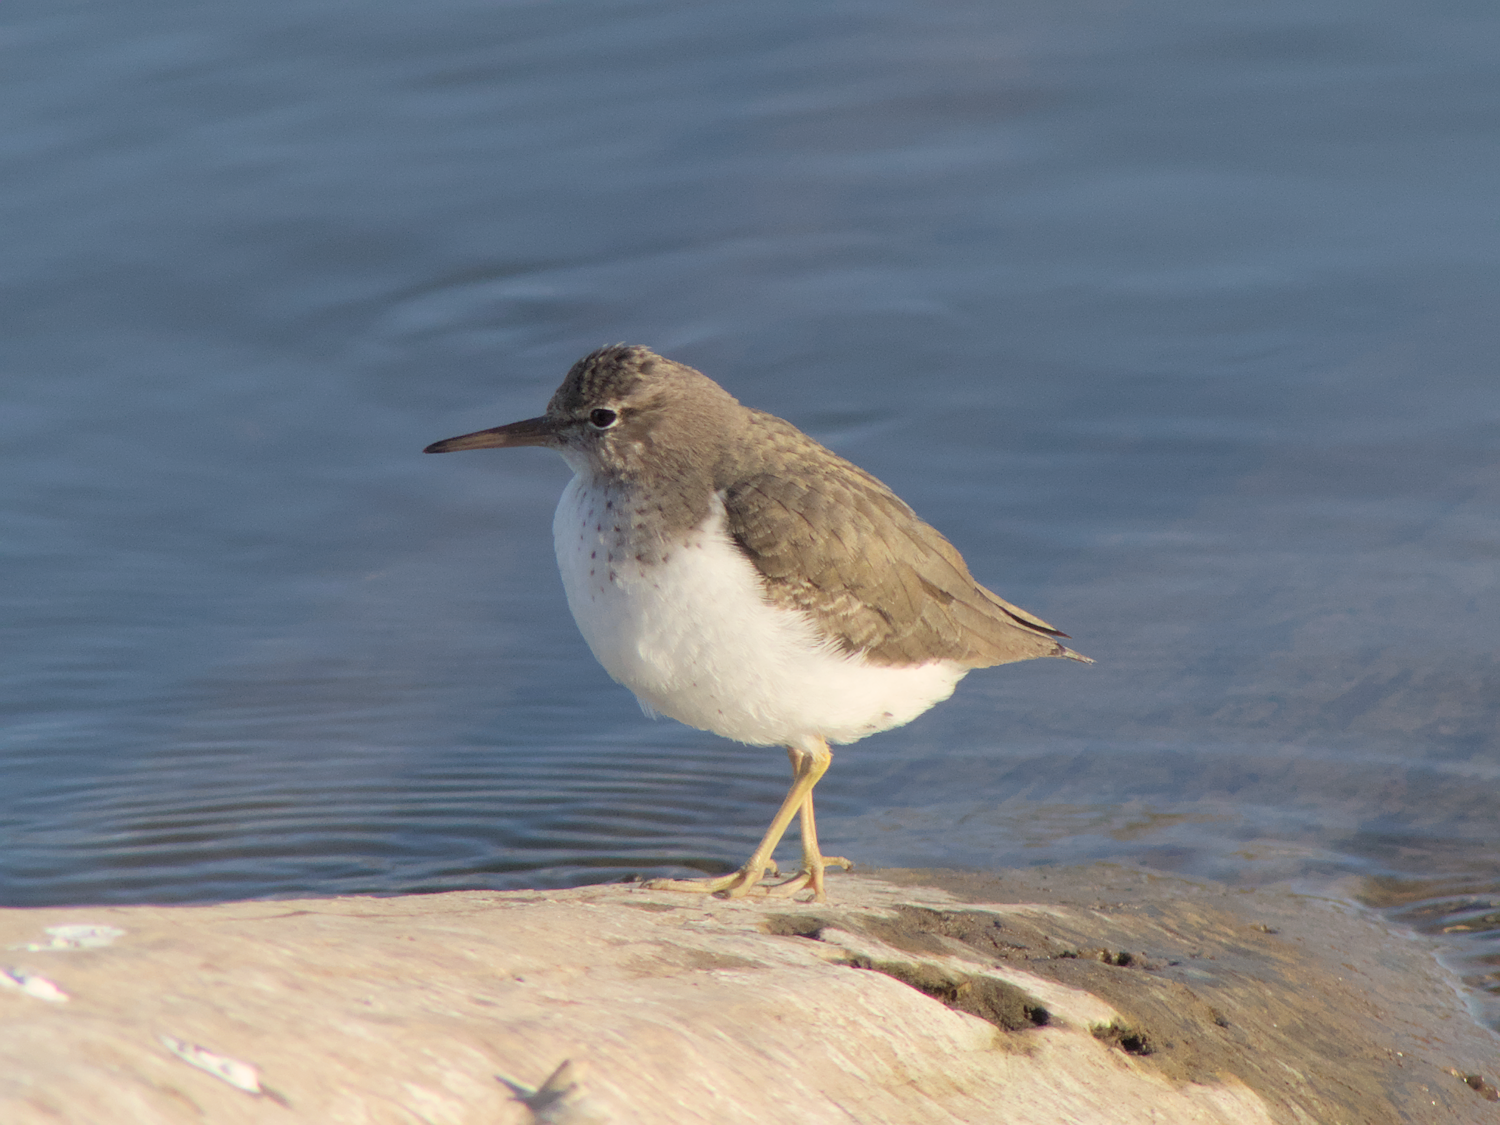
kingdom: Animalia
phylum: Chordata
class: Aves
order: Charadriiformes
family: Scolopacidae
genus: Actitis
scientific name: Actitis macularius
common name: Spotted sandpiper
